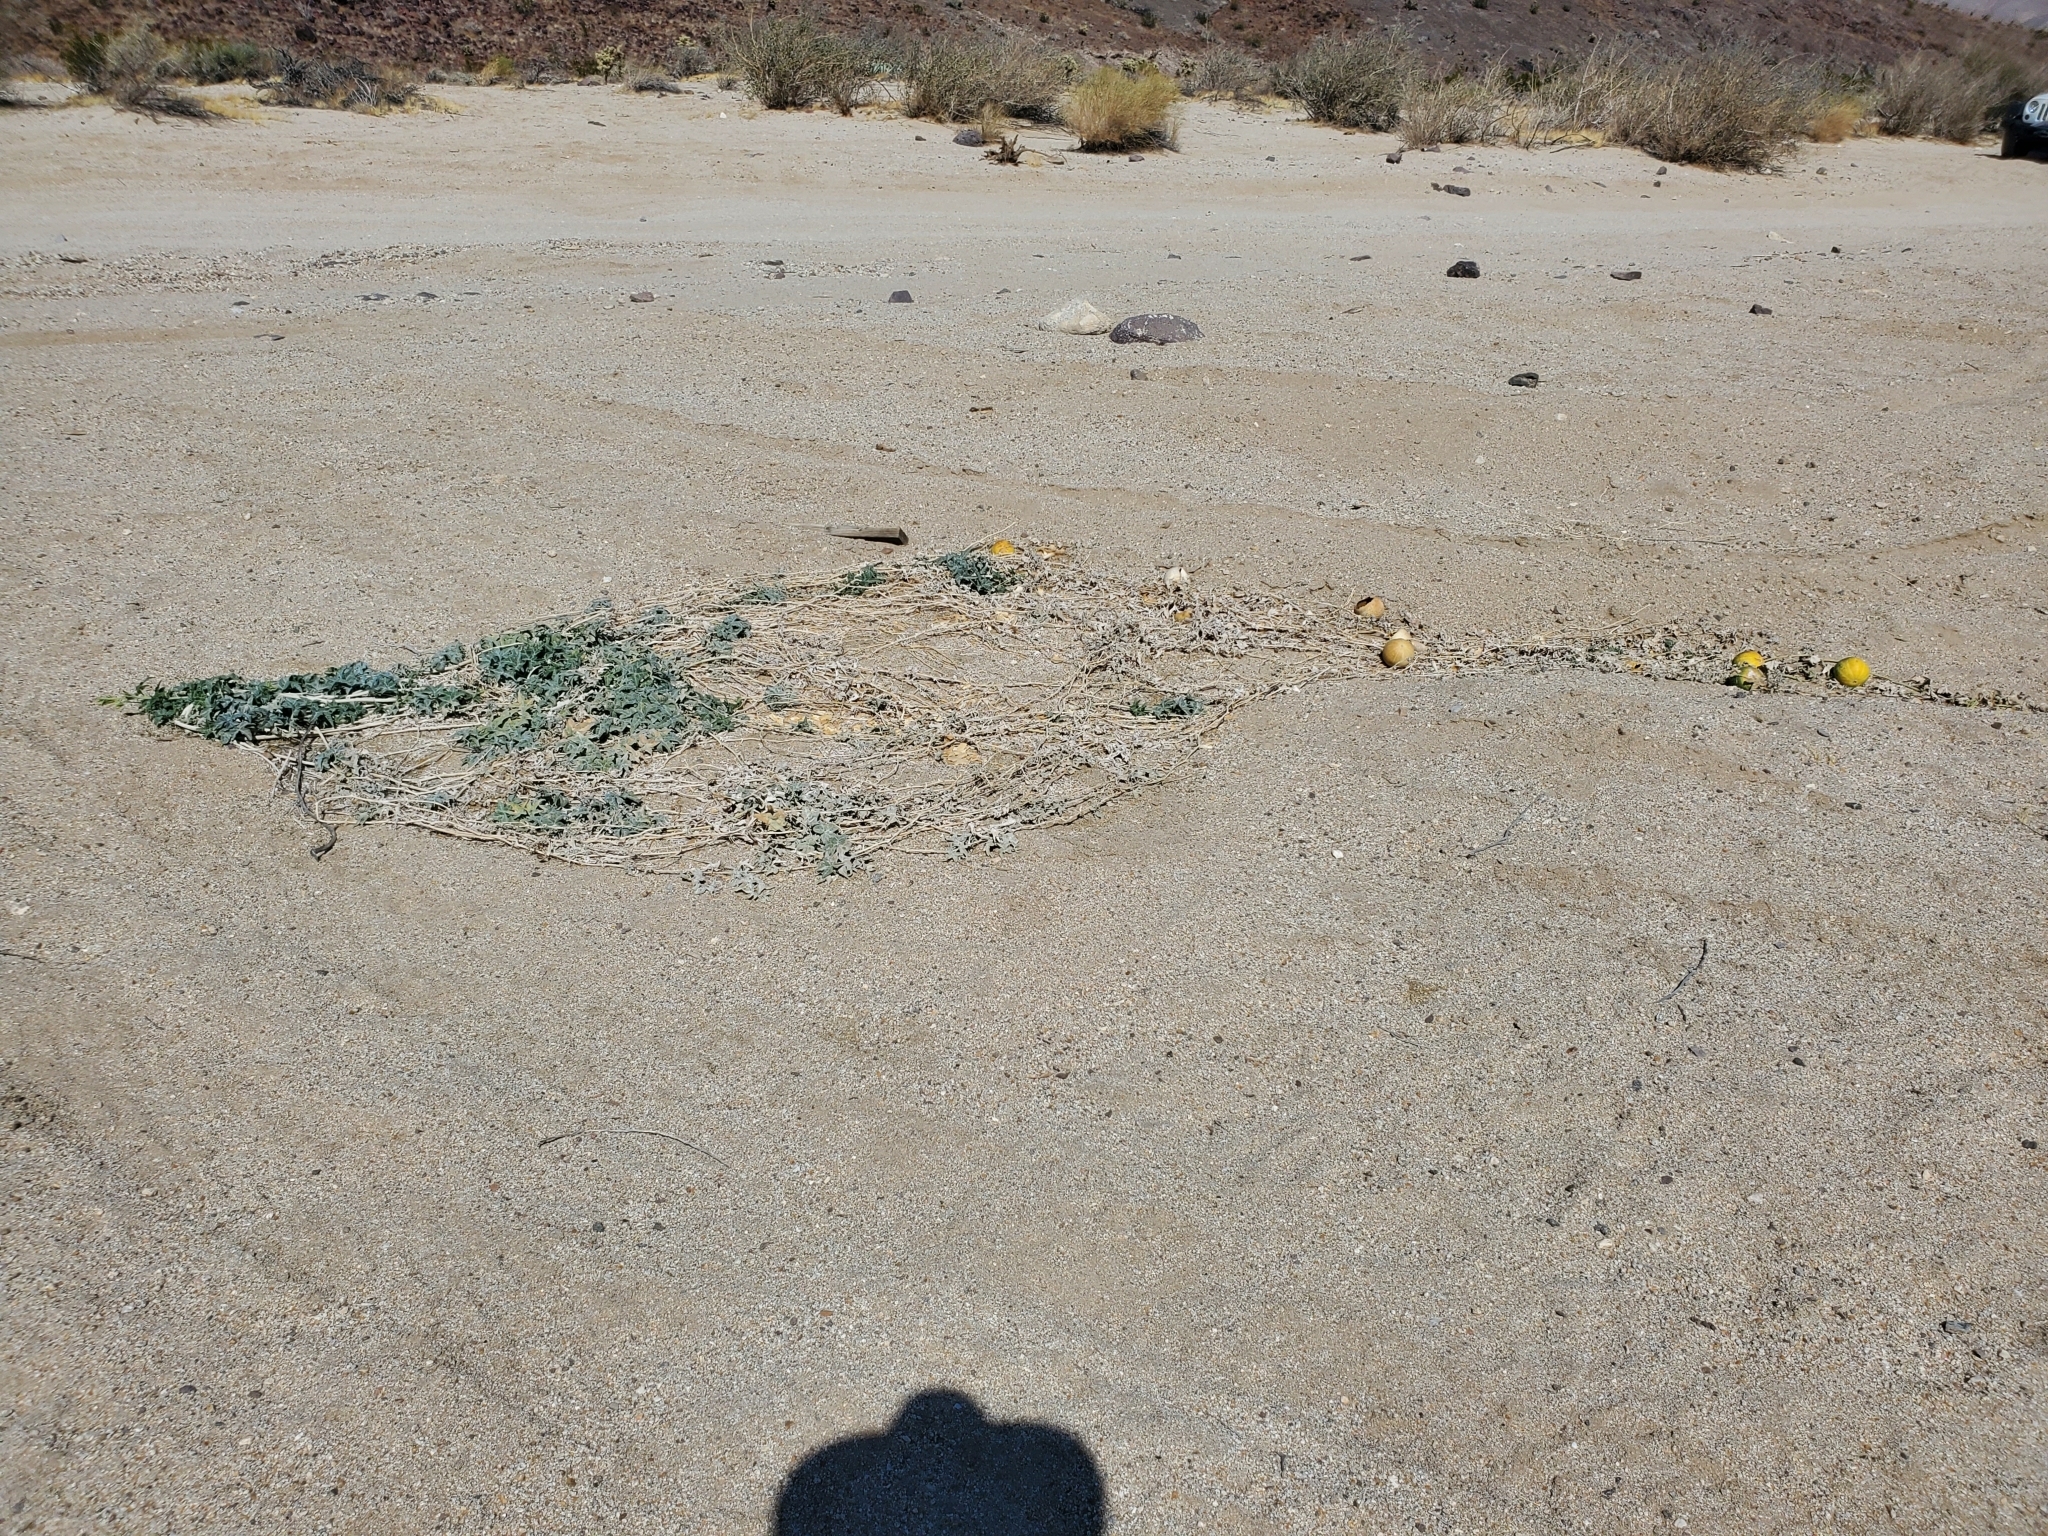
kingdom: Plantae
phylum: Tracheophyta
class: Magnoliopsida
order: Cucurbitales
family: Cucurbitaceae
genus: Cucurbita
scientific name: Cucurbita palmata
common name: Coyote-melon
